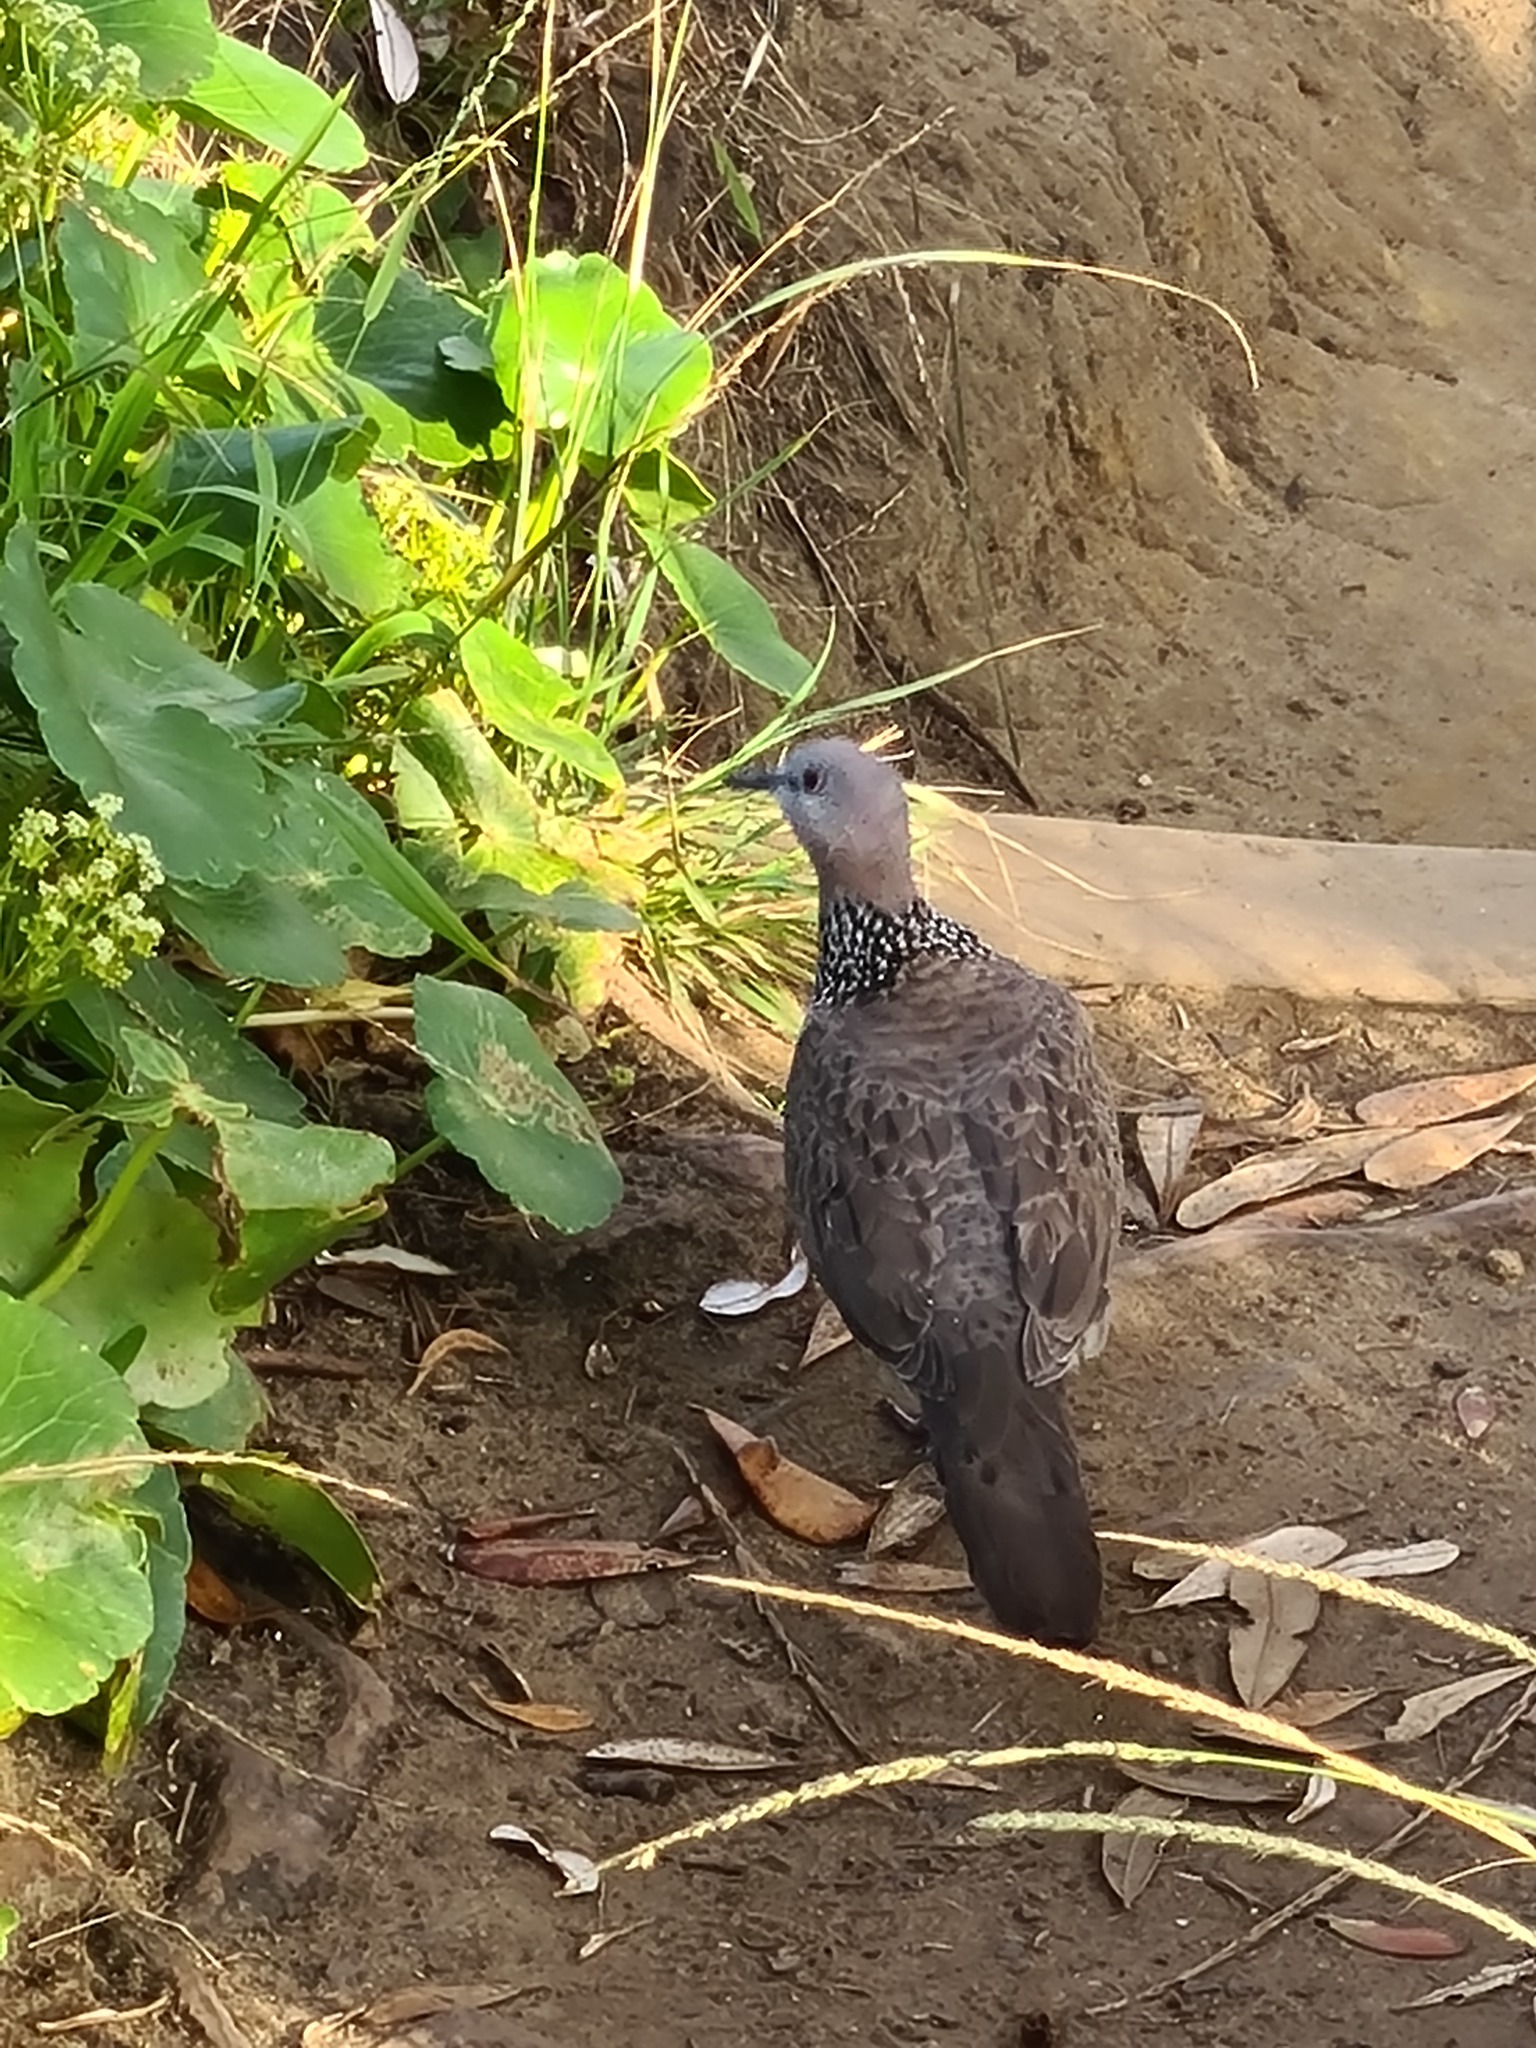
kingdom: Animalia
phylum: Chordata
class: Aves
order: Columbiformes
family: Columbidae
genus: Spilopelia
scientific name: Spilopelia chinensis
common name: Spotted dove
